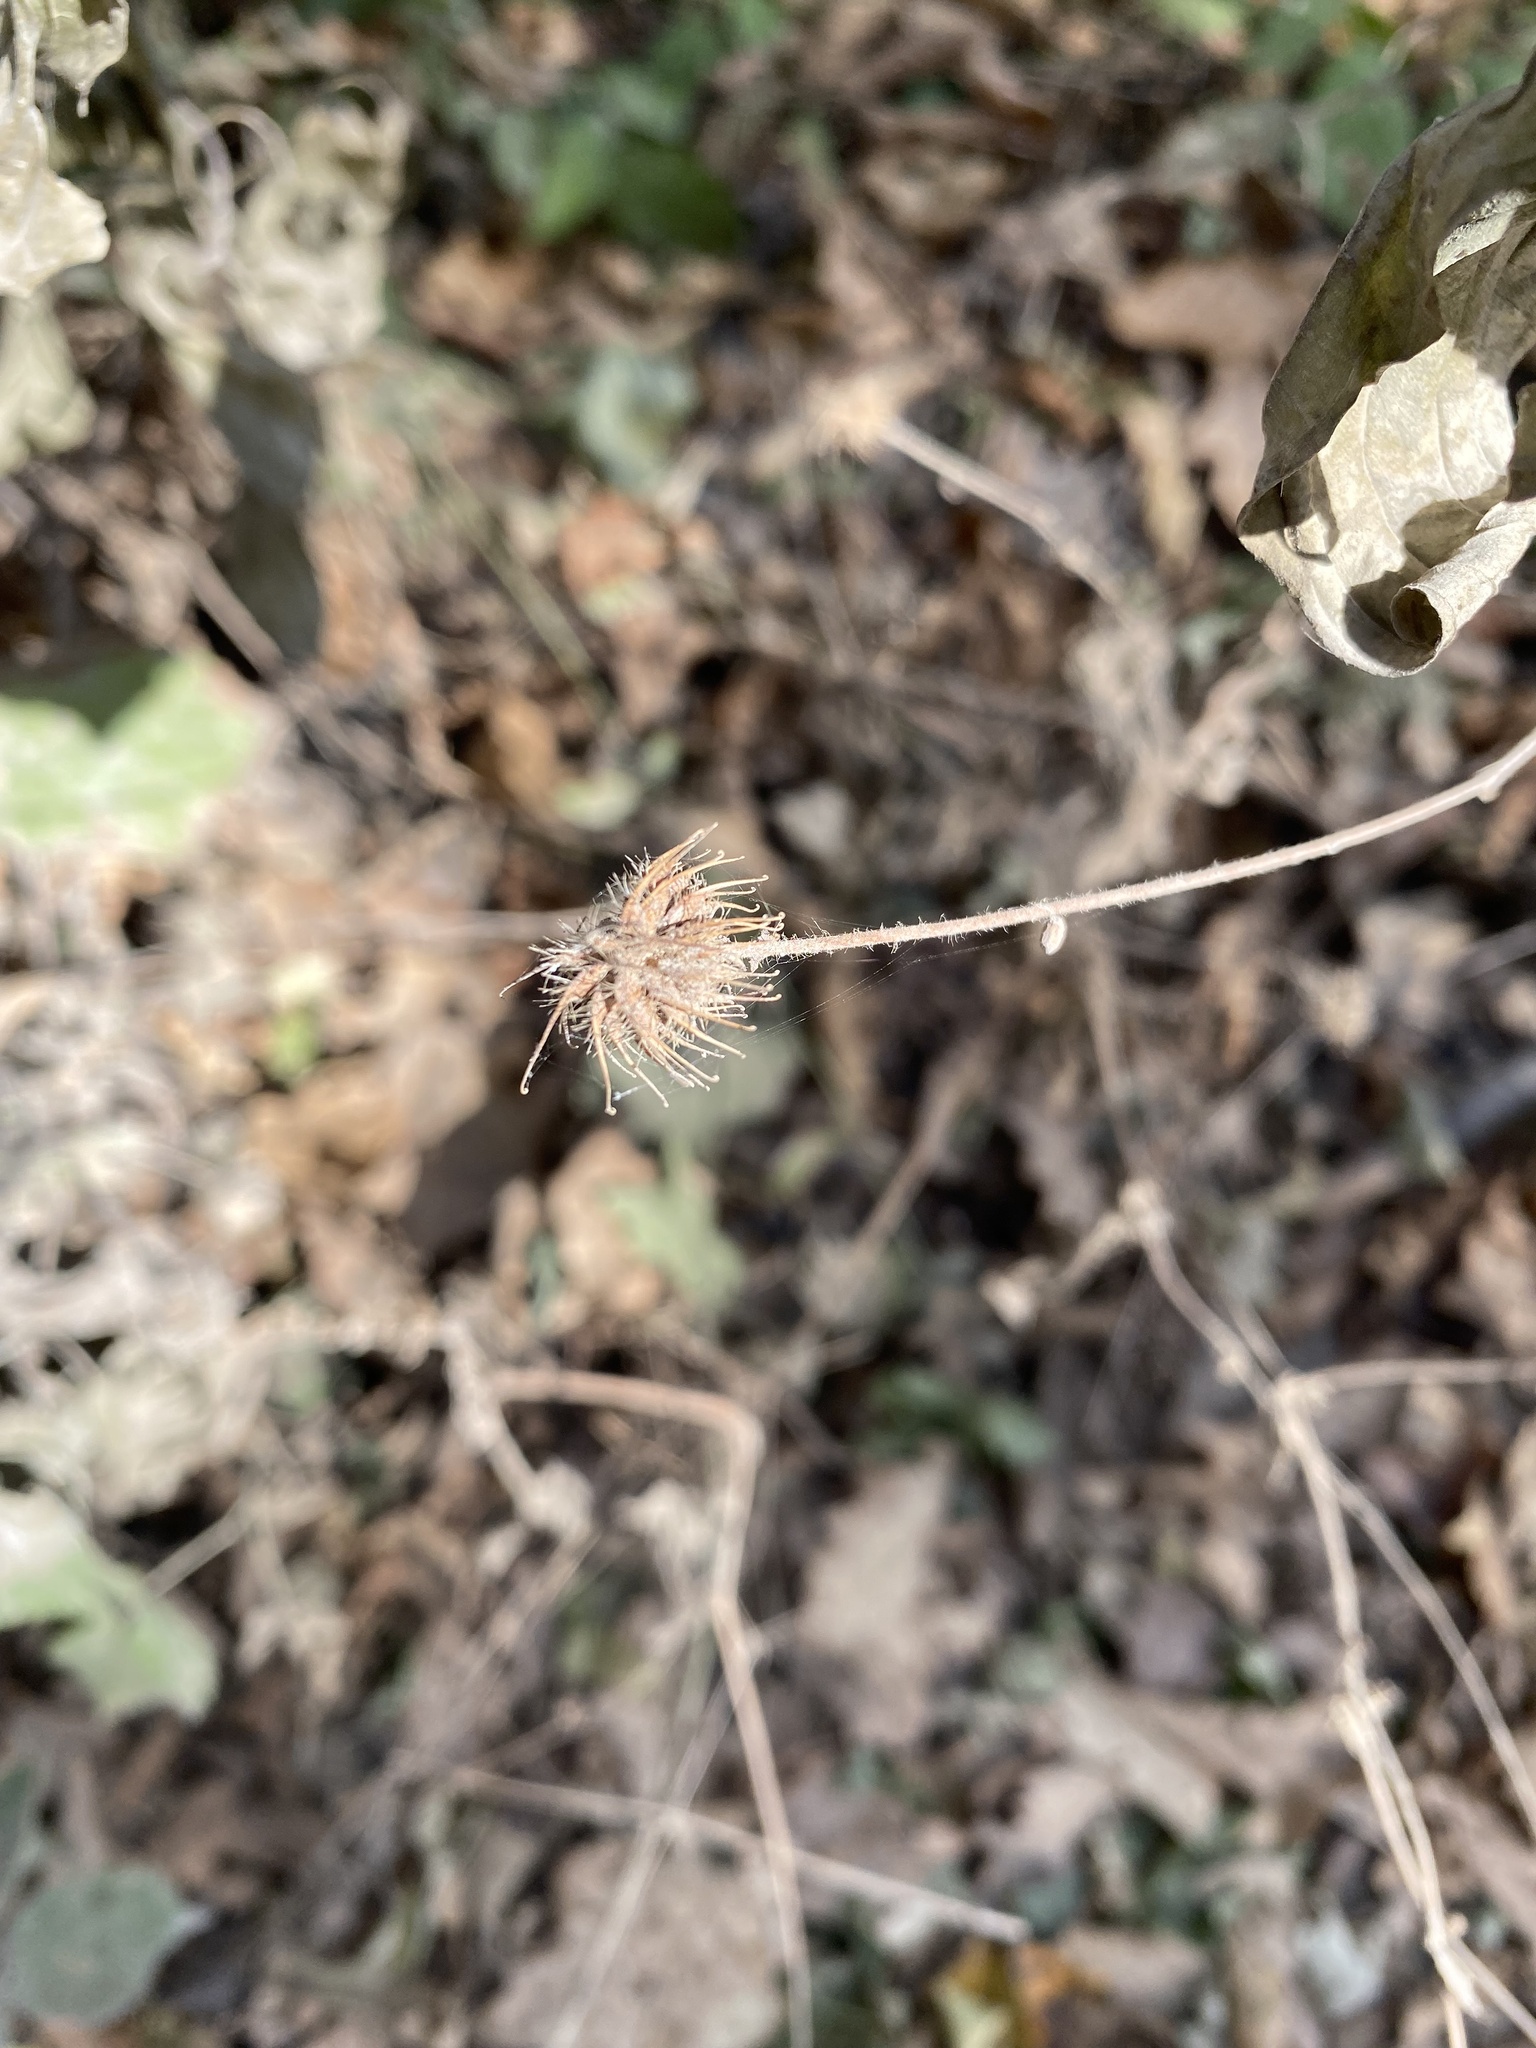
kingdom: Plantae
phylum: Tracheophyta
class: Magnoliopsida
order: Rosales
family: Rosaceae
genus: Geum
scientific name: Geum urbanum
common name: Wood avens
